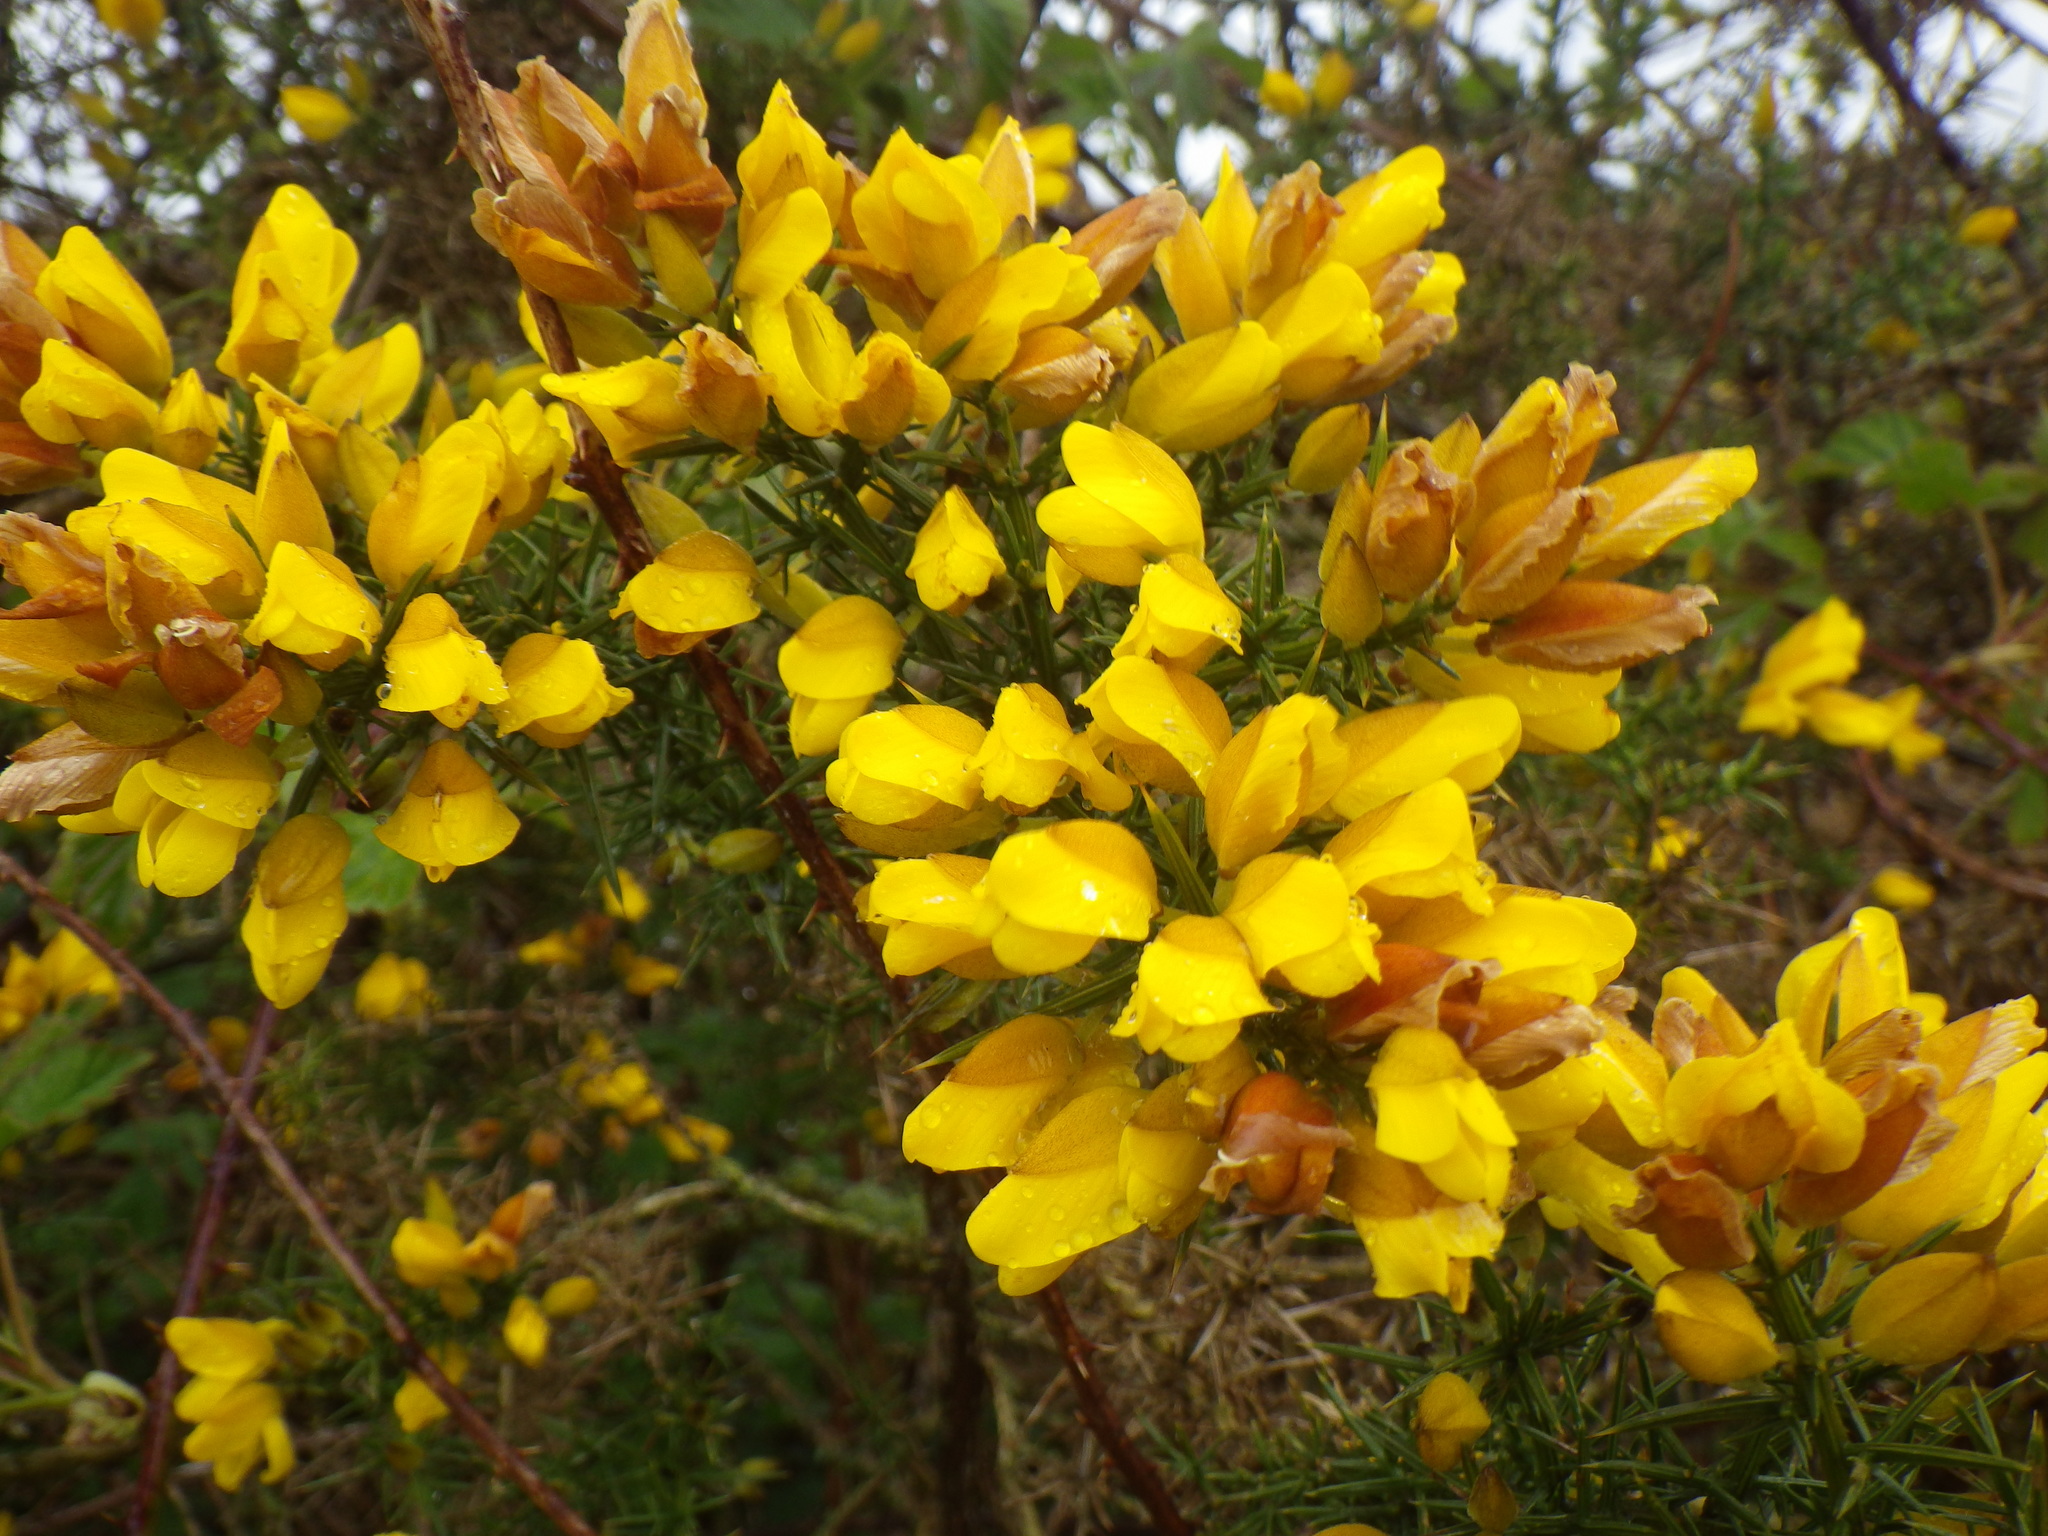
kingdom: Plantae
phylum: Tracheophyta
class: Magnoliopsida
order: Fabales
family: Fabaceae
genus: Ulex
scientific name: Ulex europaeus
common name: Common gorse
